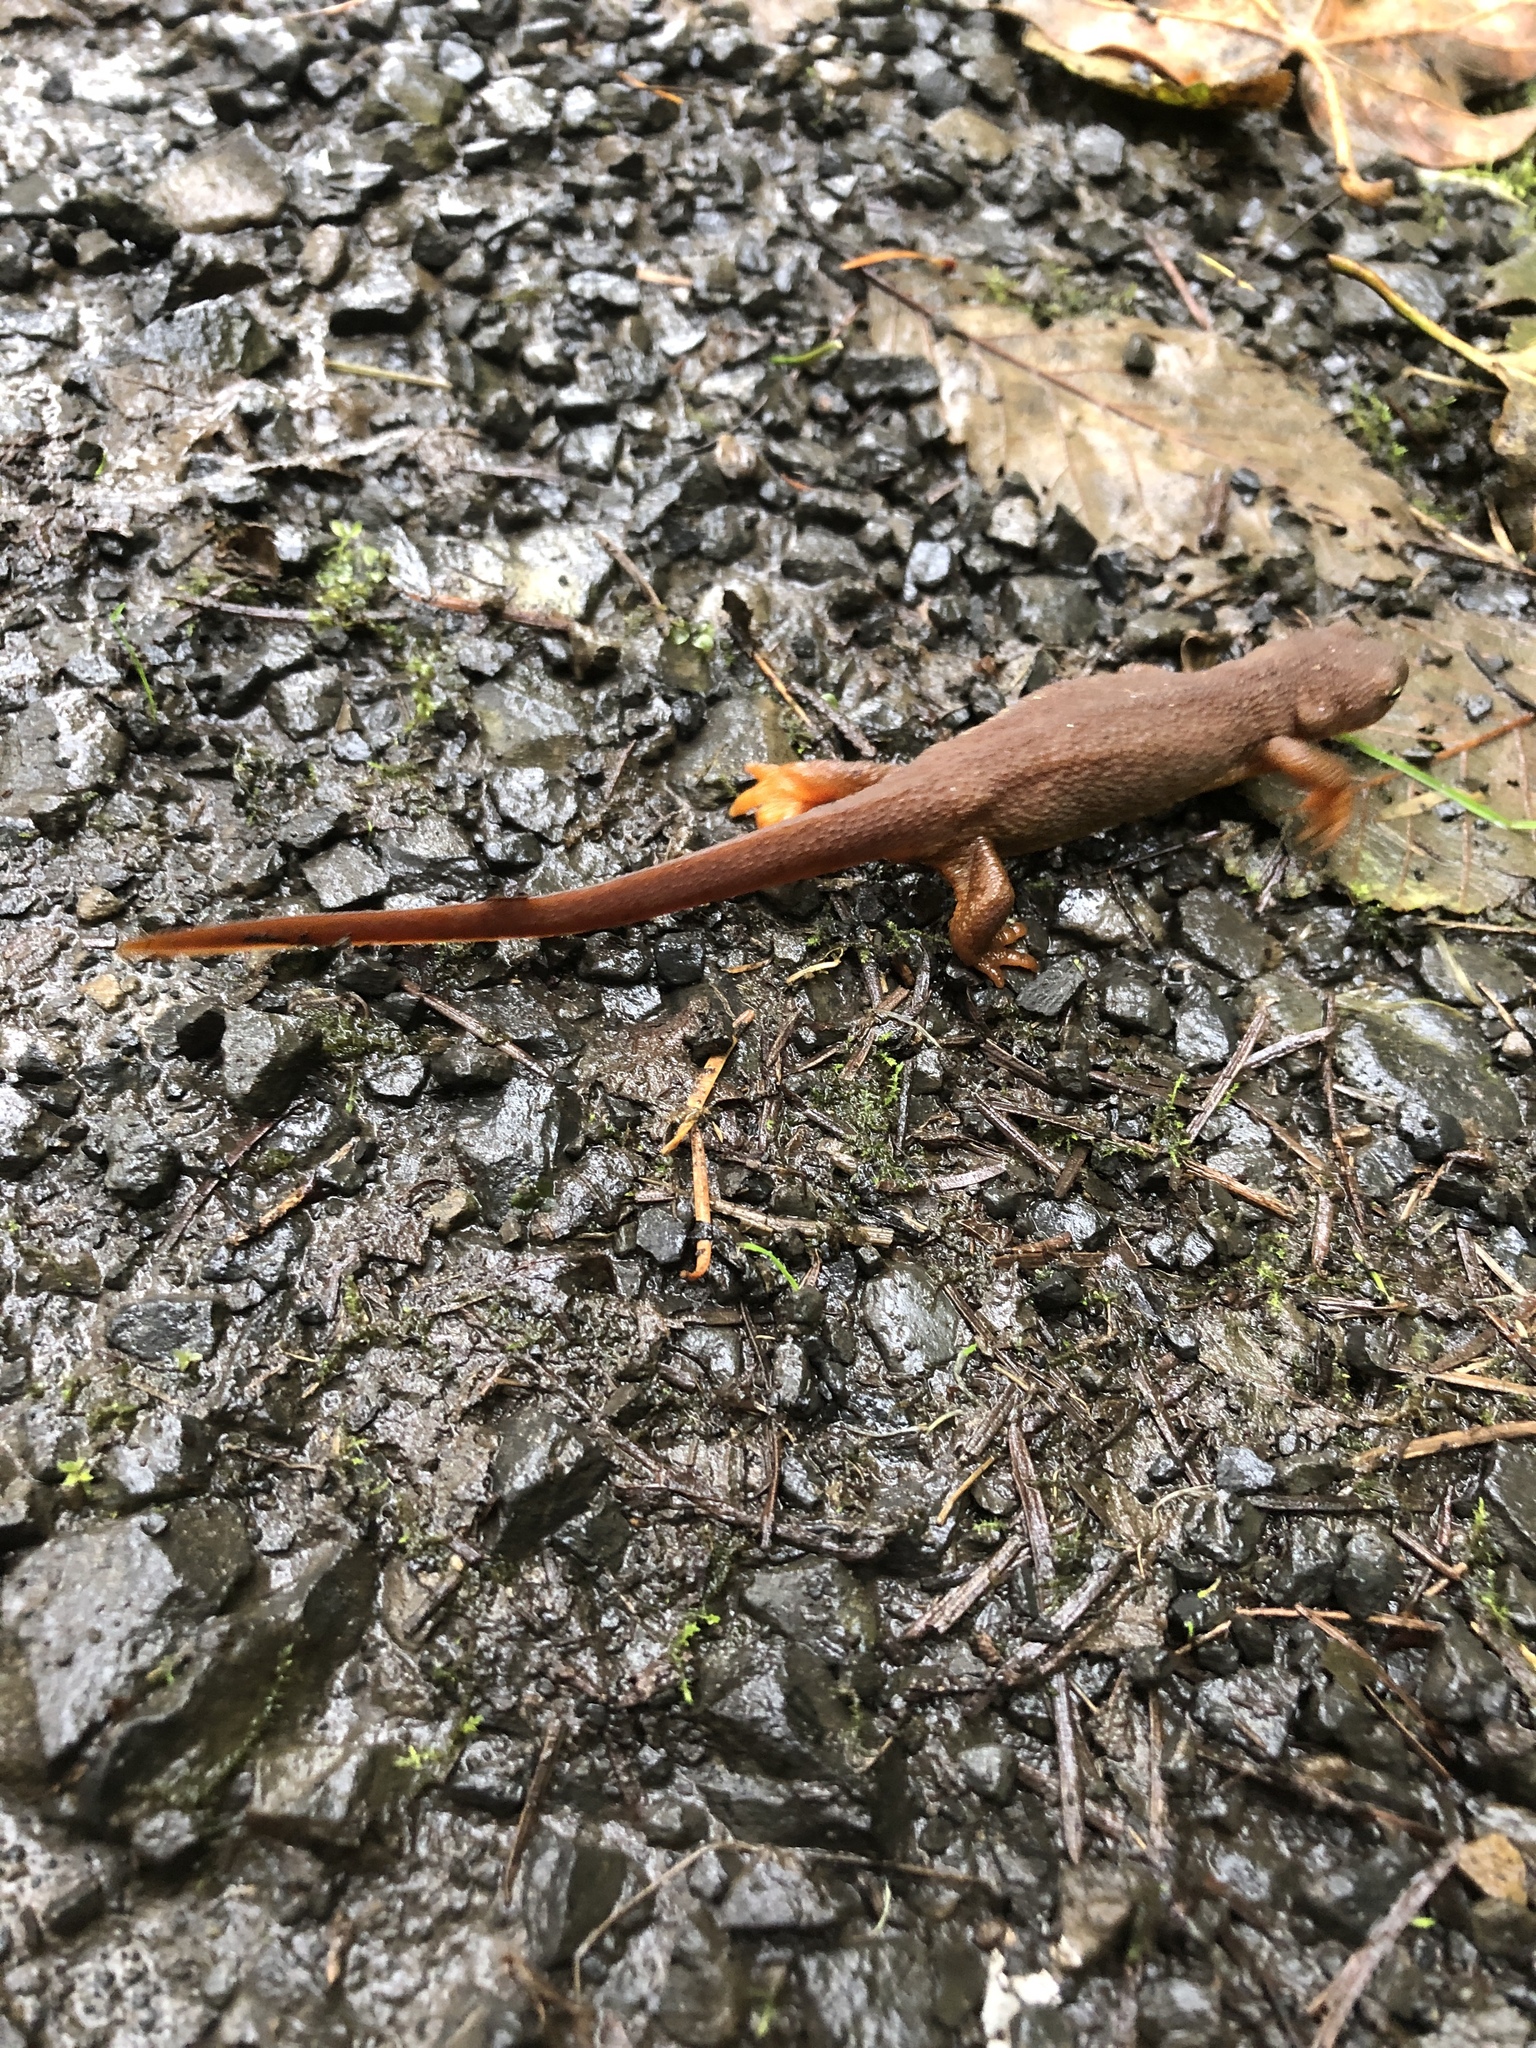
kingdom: Animalia
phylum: Chordata
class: Amphibia
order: Caudata
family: Salamandridae
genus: Taricha
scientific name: Taricha granulosa
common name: Roughskin newt
